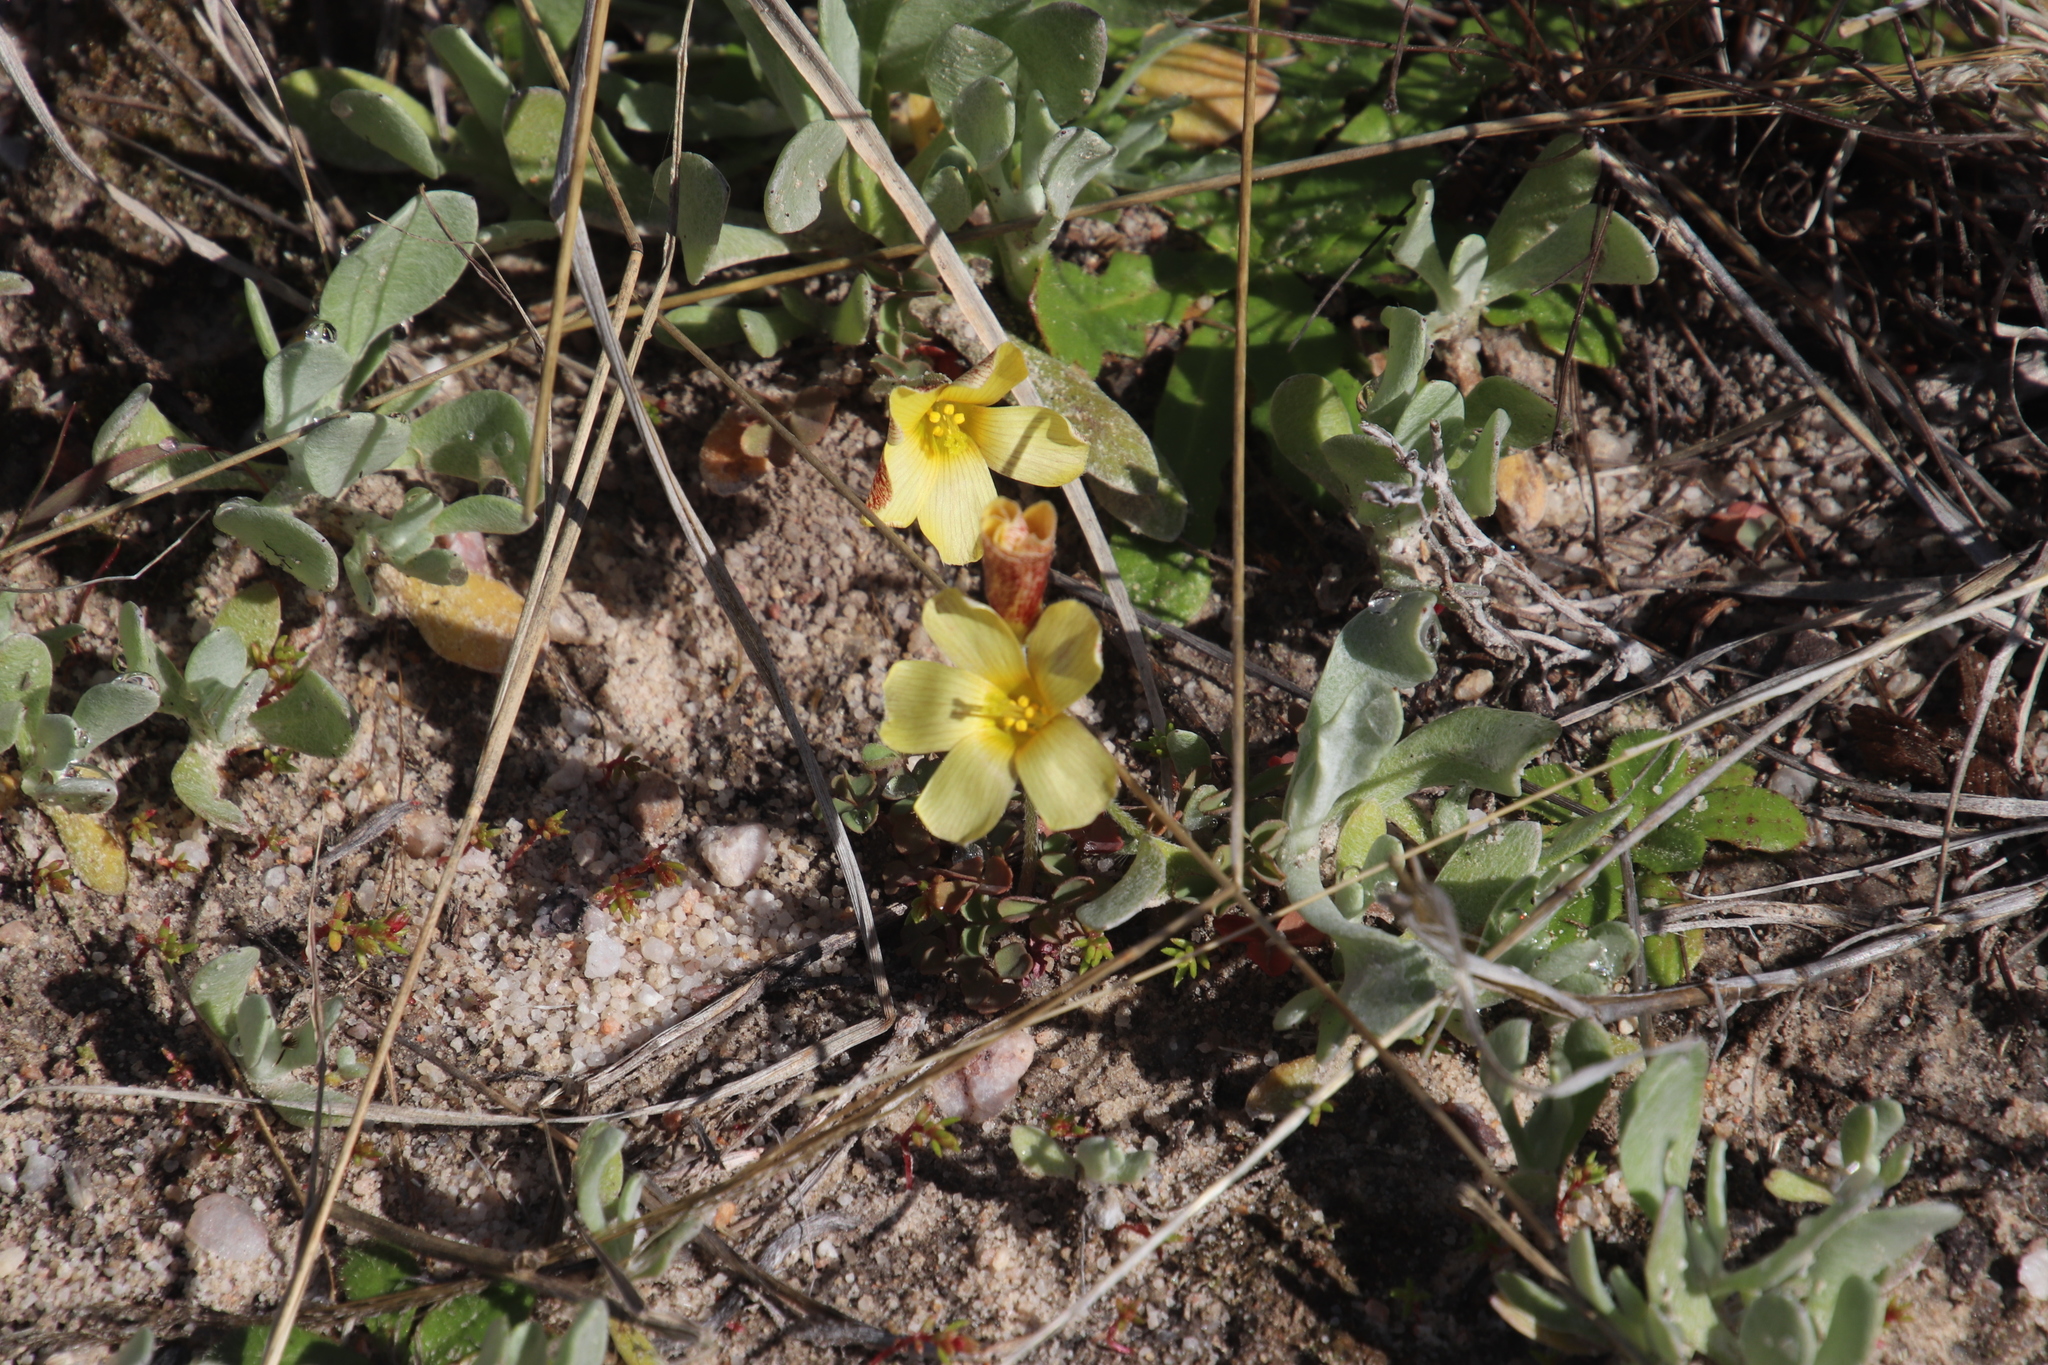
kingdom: Plantae
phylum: Tracheophyta
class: Magnoliopsida
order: Oxalidales
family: Oxalidaceae
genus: Oxalis
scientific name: Oxalis obtusa
